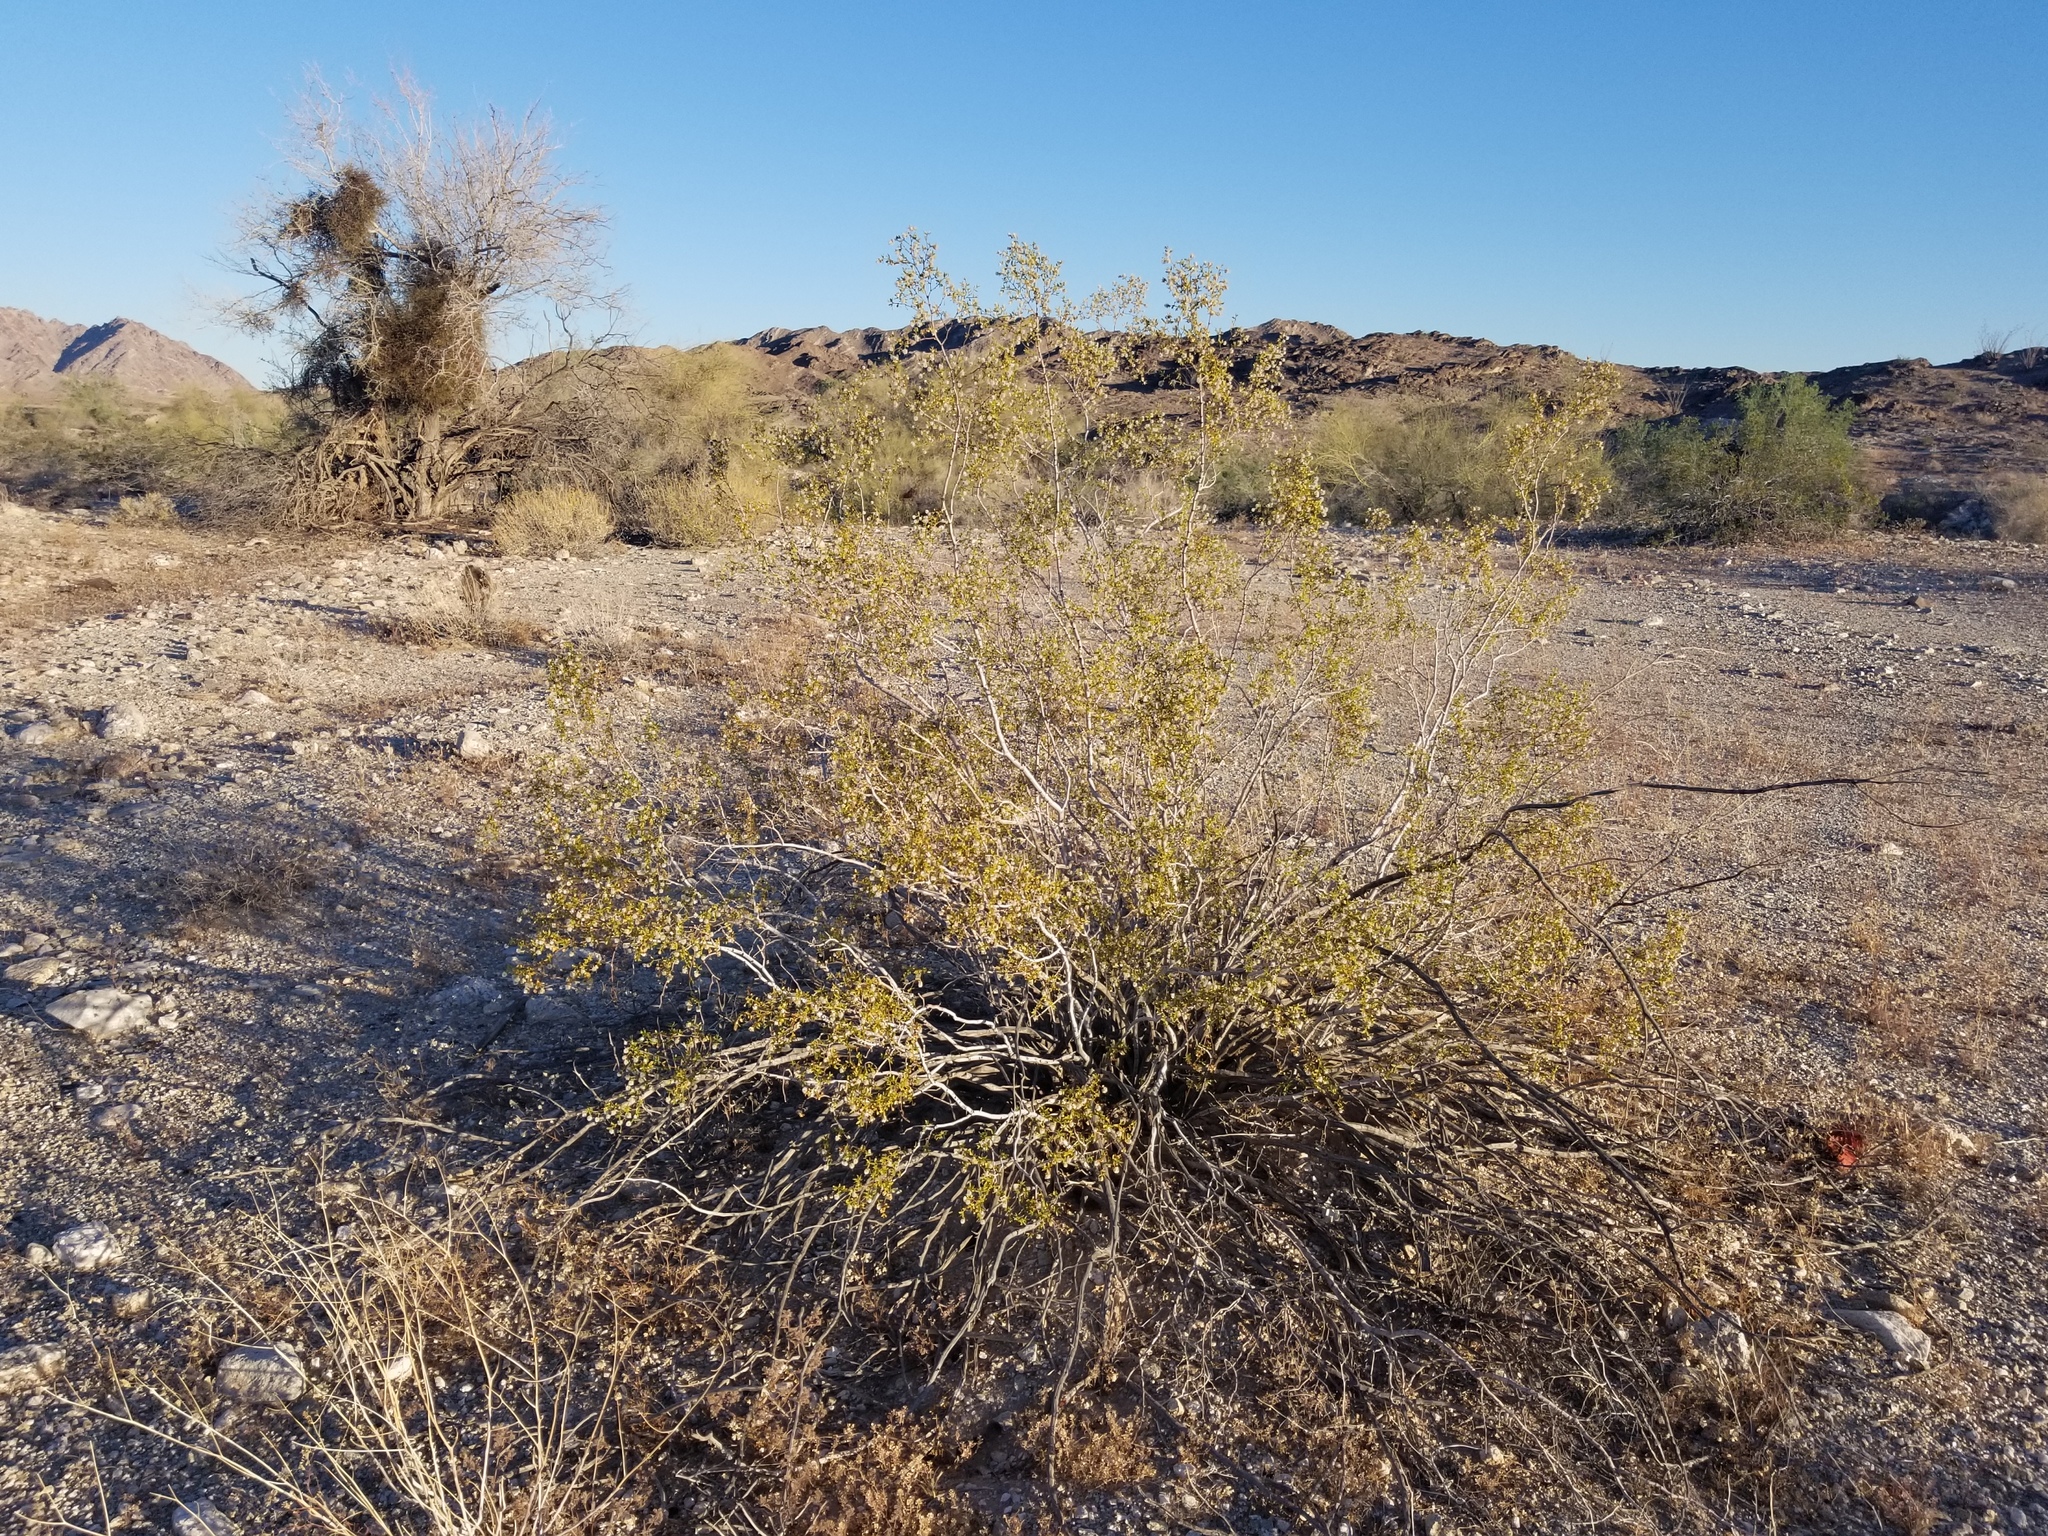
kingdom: Plantae
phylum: Tracheophyta
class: Magnoliopsida
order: Zygophyllales
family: Zygophyllaceae
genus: Larrea
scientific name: Larrea tridentata
